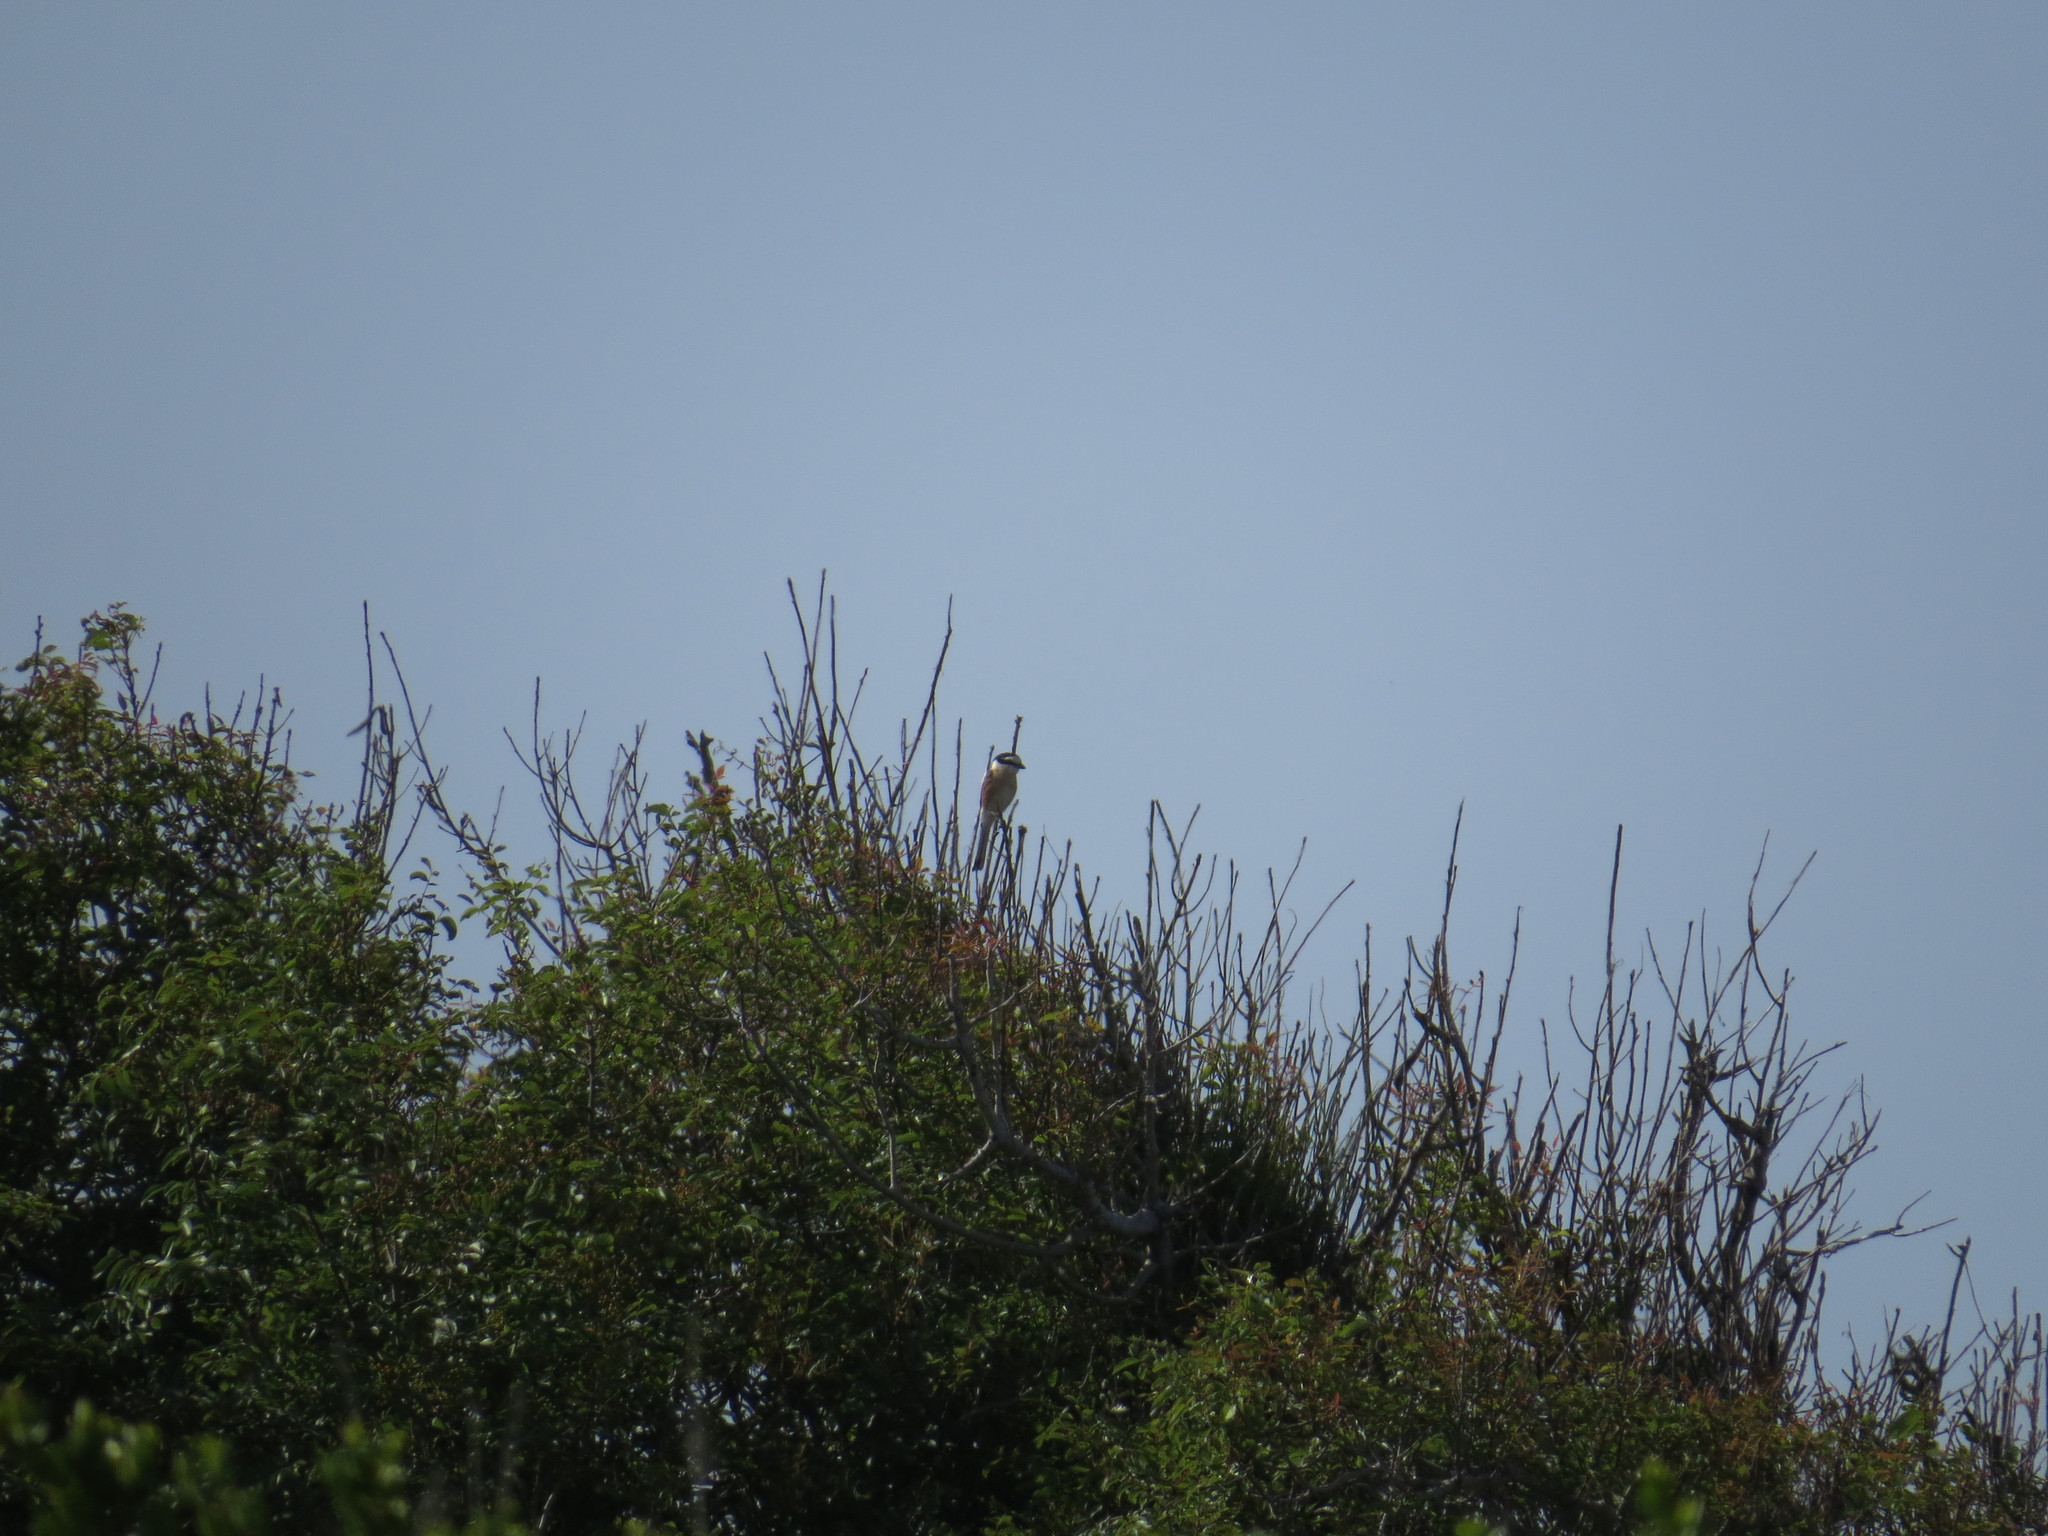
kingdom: Animalia
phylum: Chordata
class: Aves
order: Passeriformes
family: Laniidae
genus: Lanius
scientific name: Lanius nubicus
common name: Masked shrike
